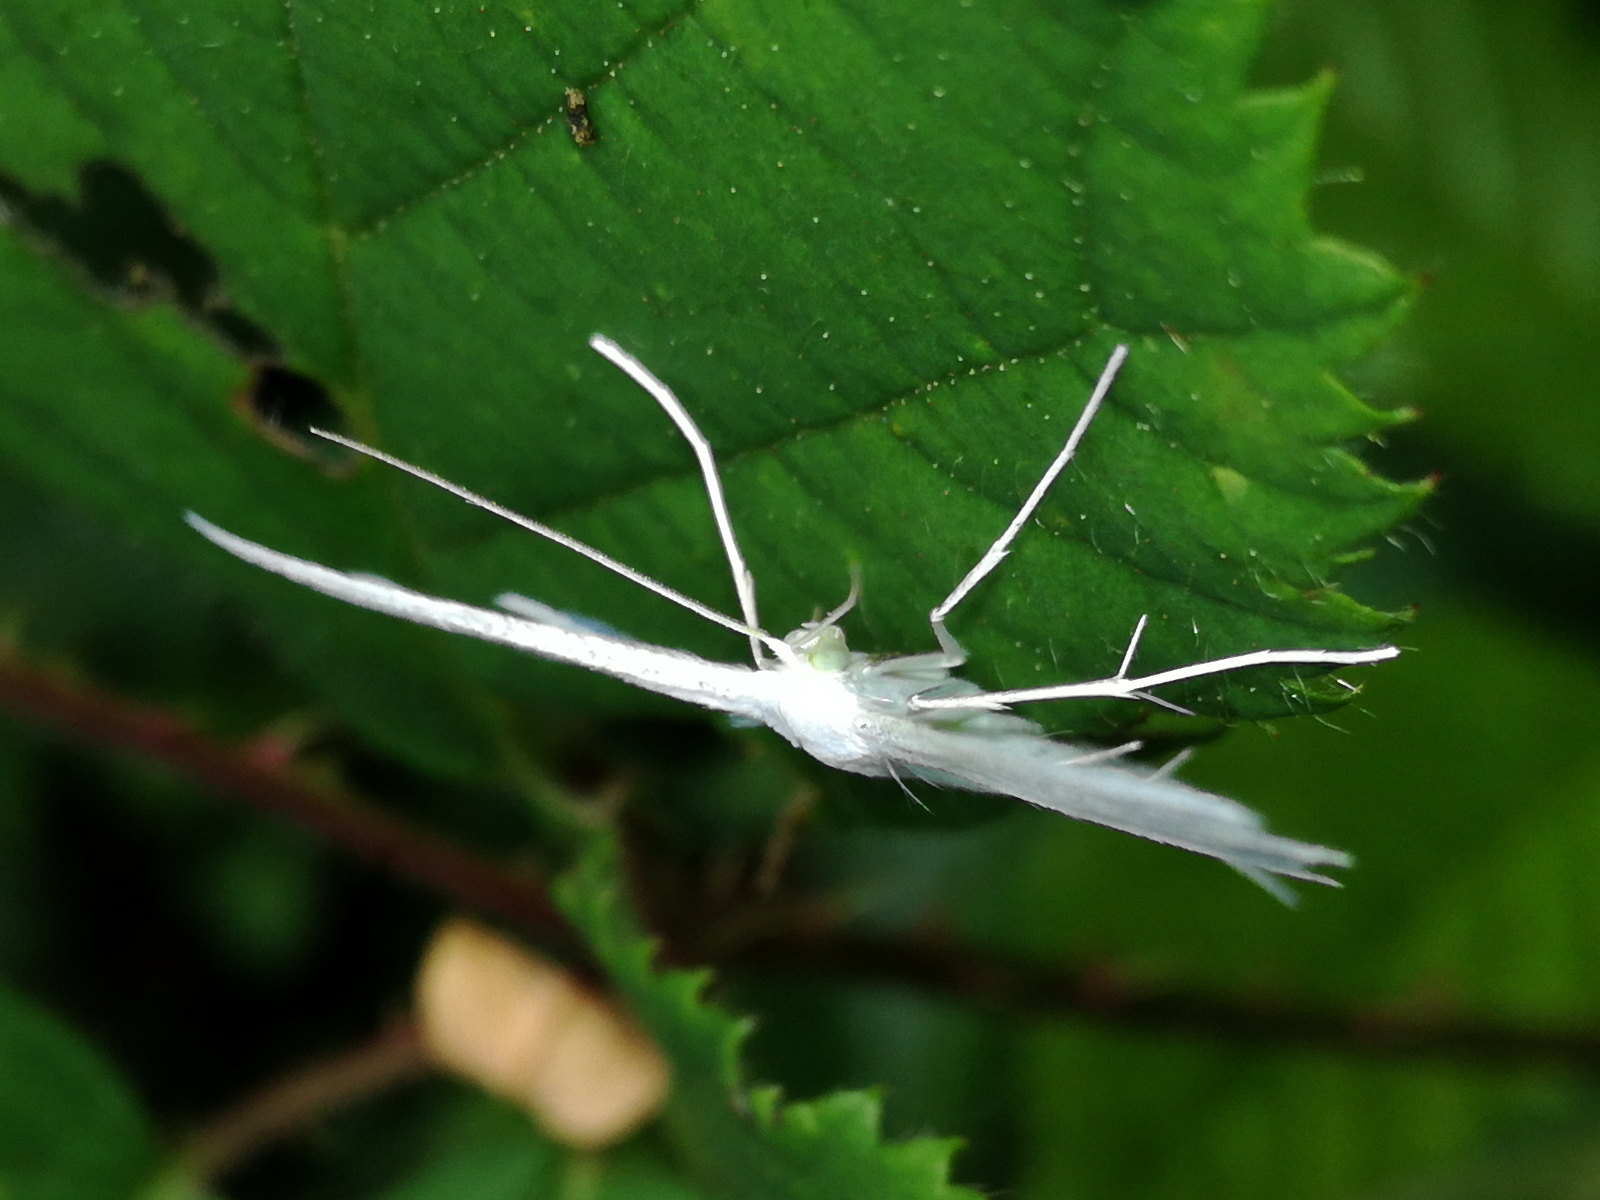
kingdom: Animalia
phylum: Arthropoda
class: Insecta
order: Lepidoptera
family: Pterophoridae
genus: Pterophorus
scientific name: Pterophorus pentadactyla
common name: White plume moth
